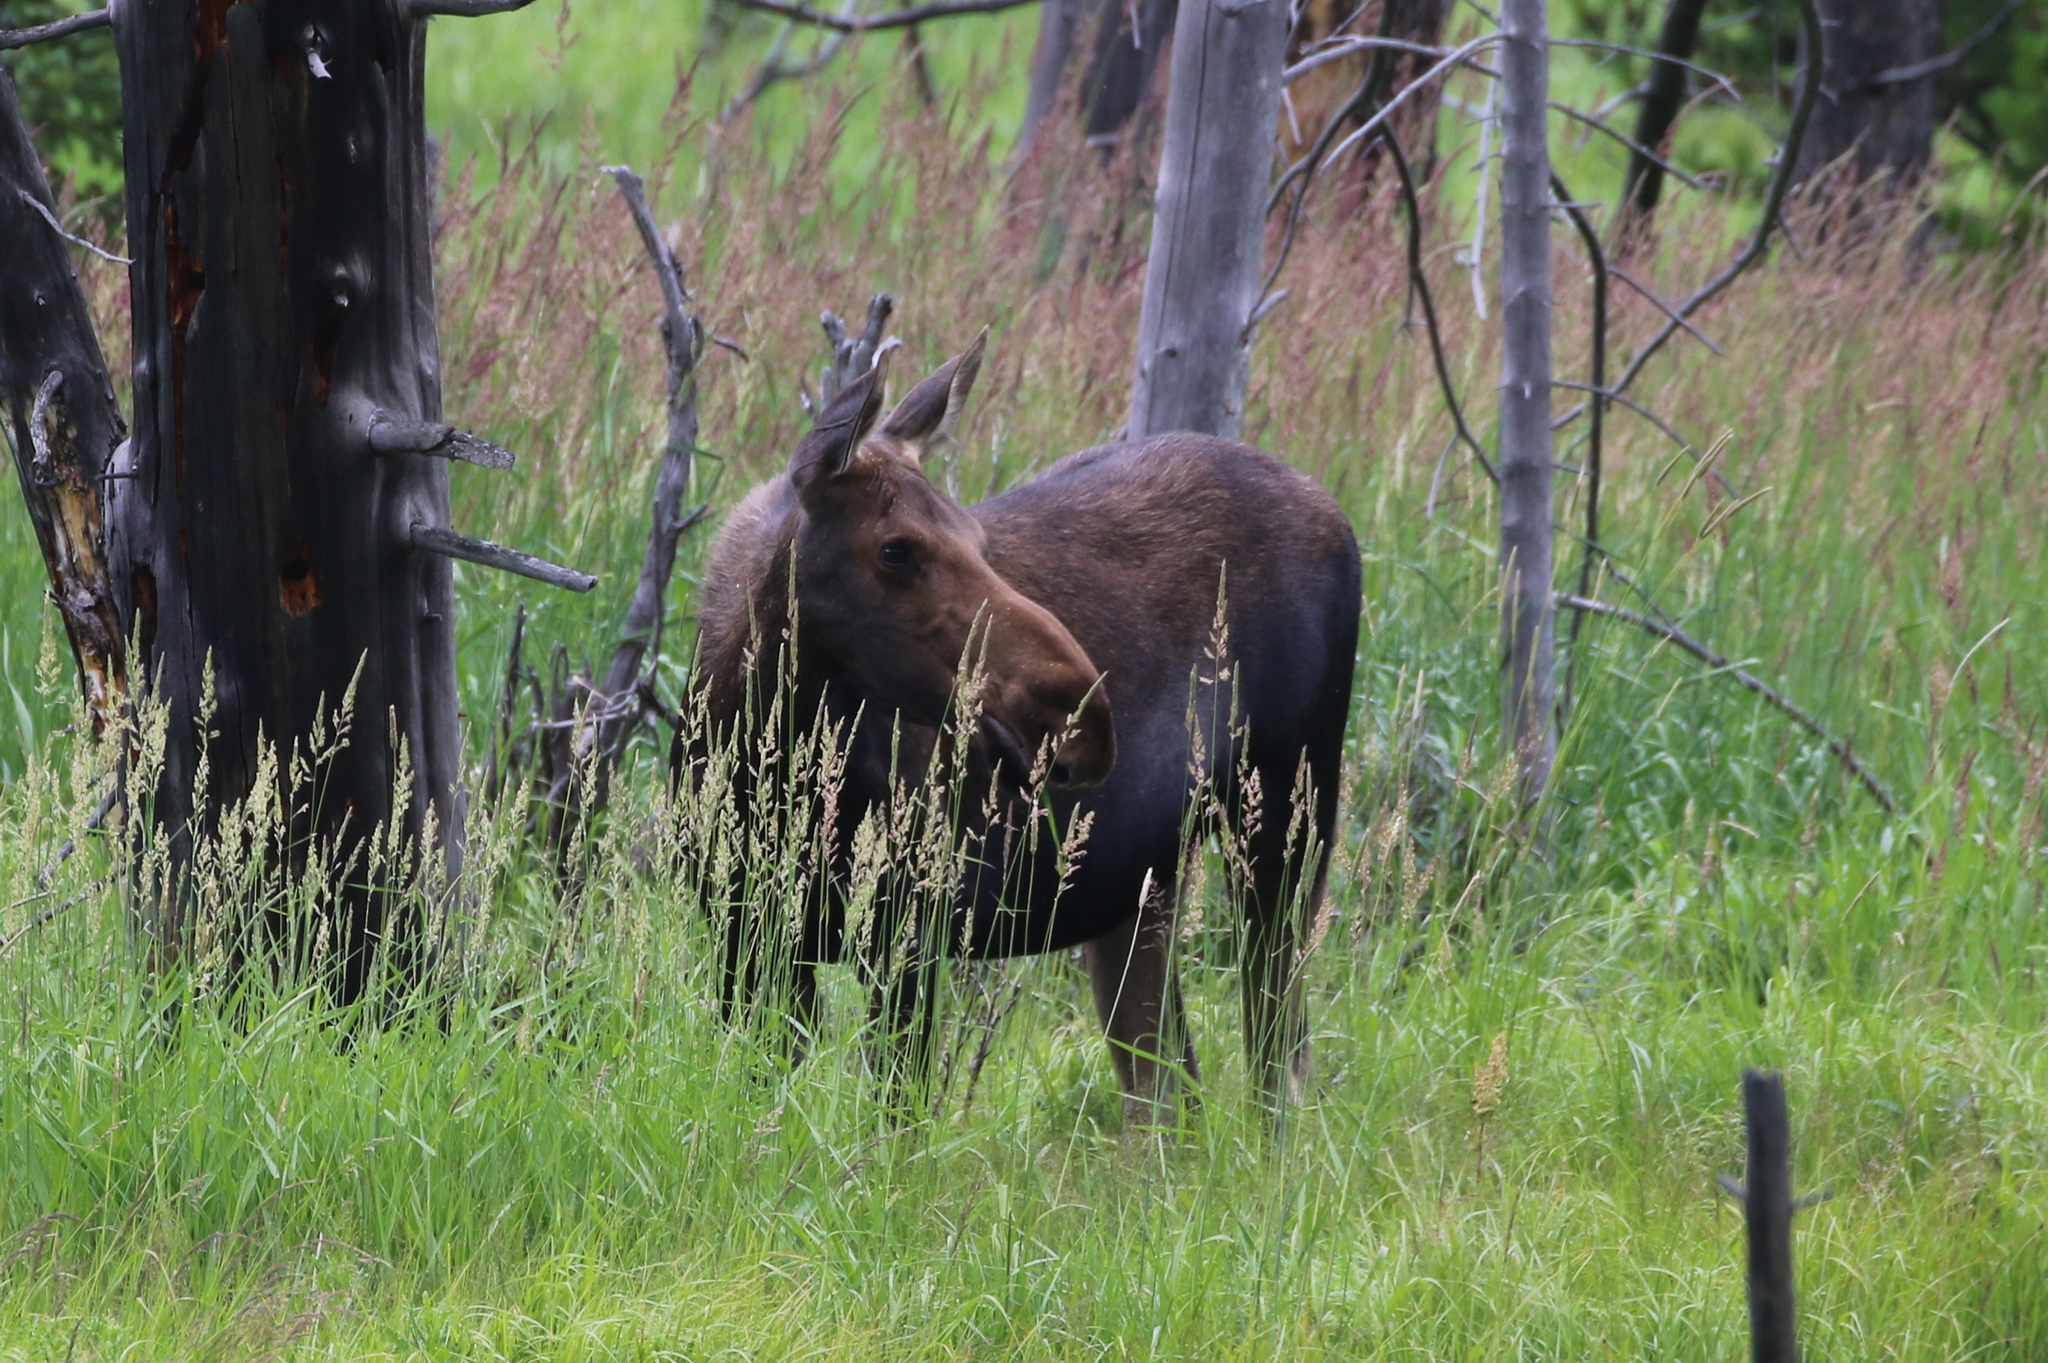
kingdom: Animalia
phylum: Chordata
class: Mammalia
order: Artiodactyla
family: Cervidae
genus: Alces
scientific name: Alces alces
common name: Moose
